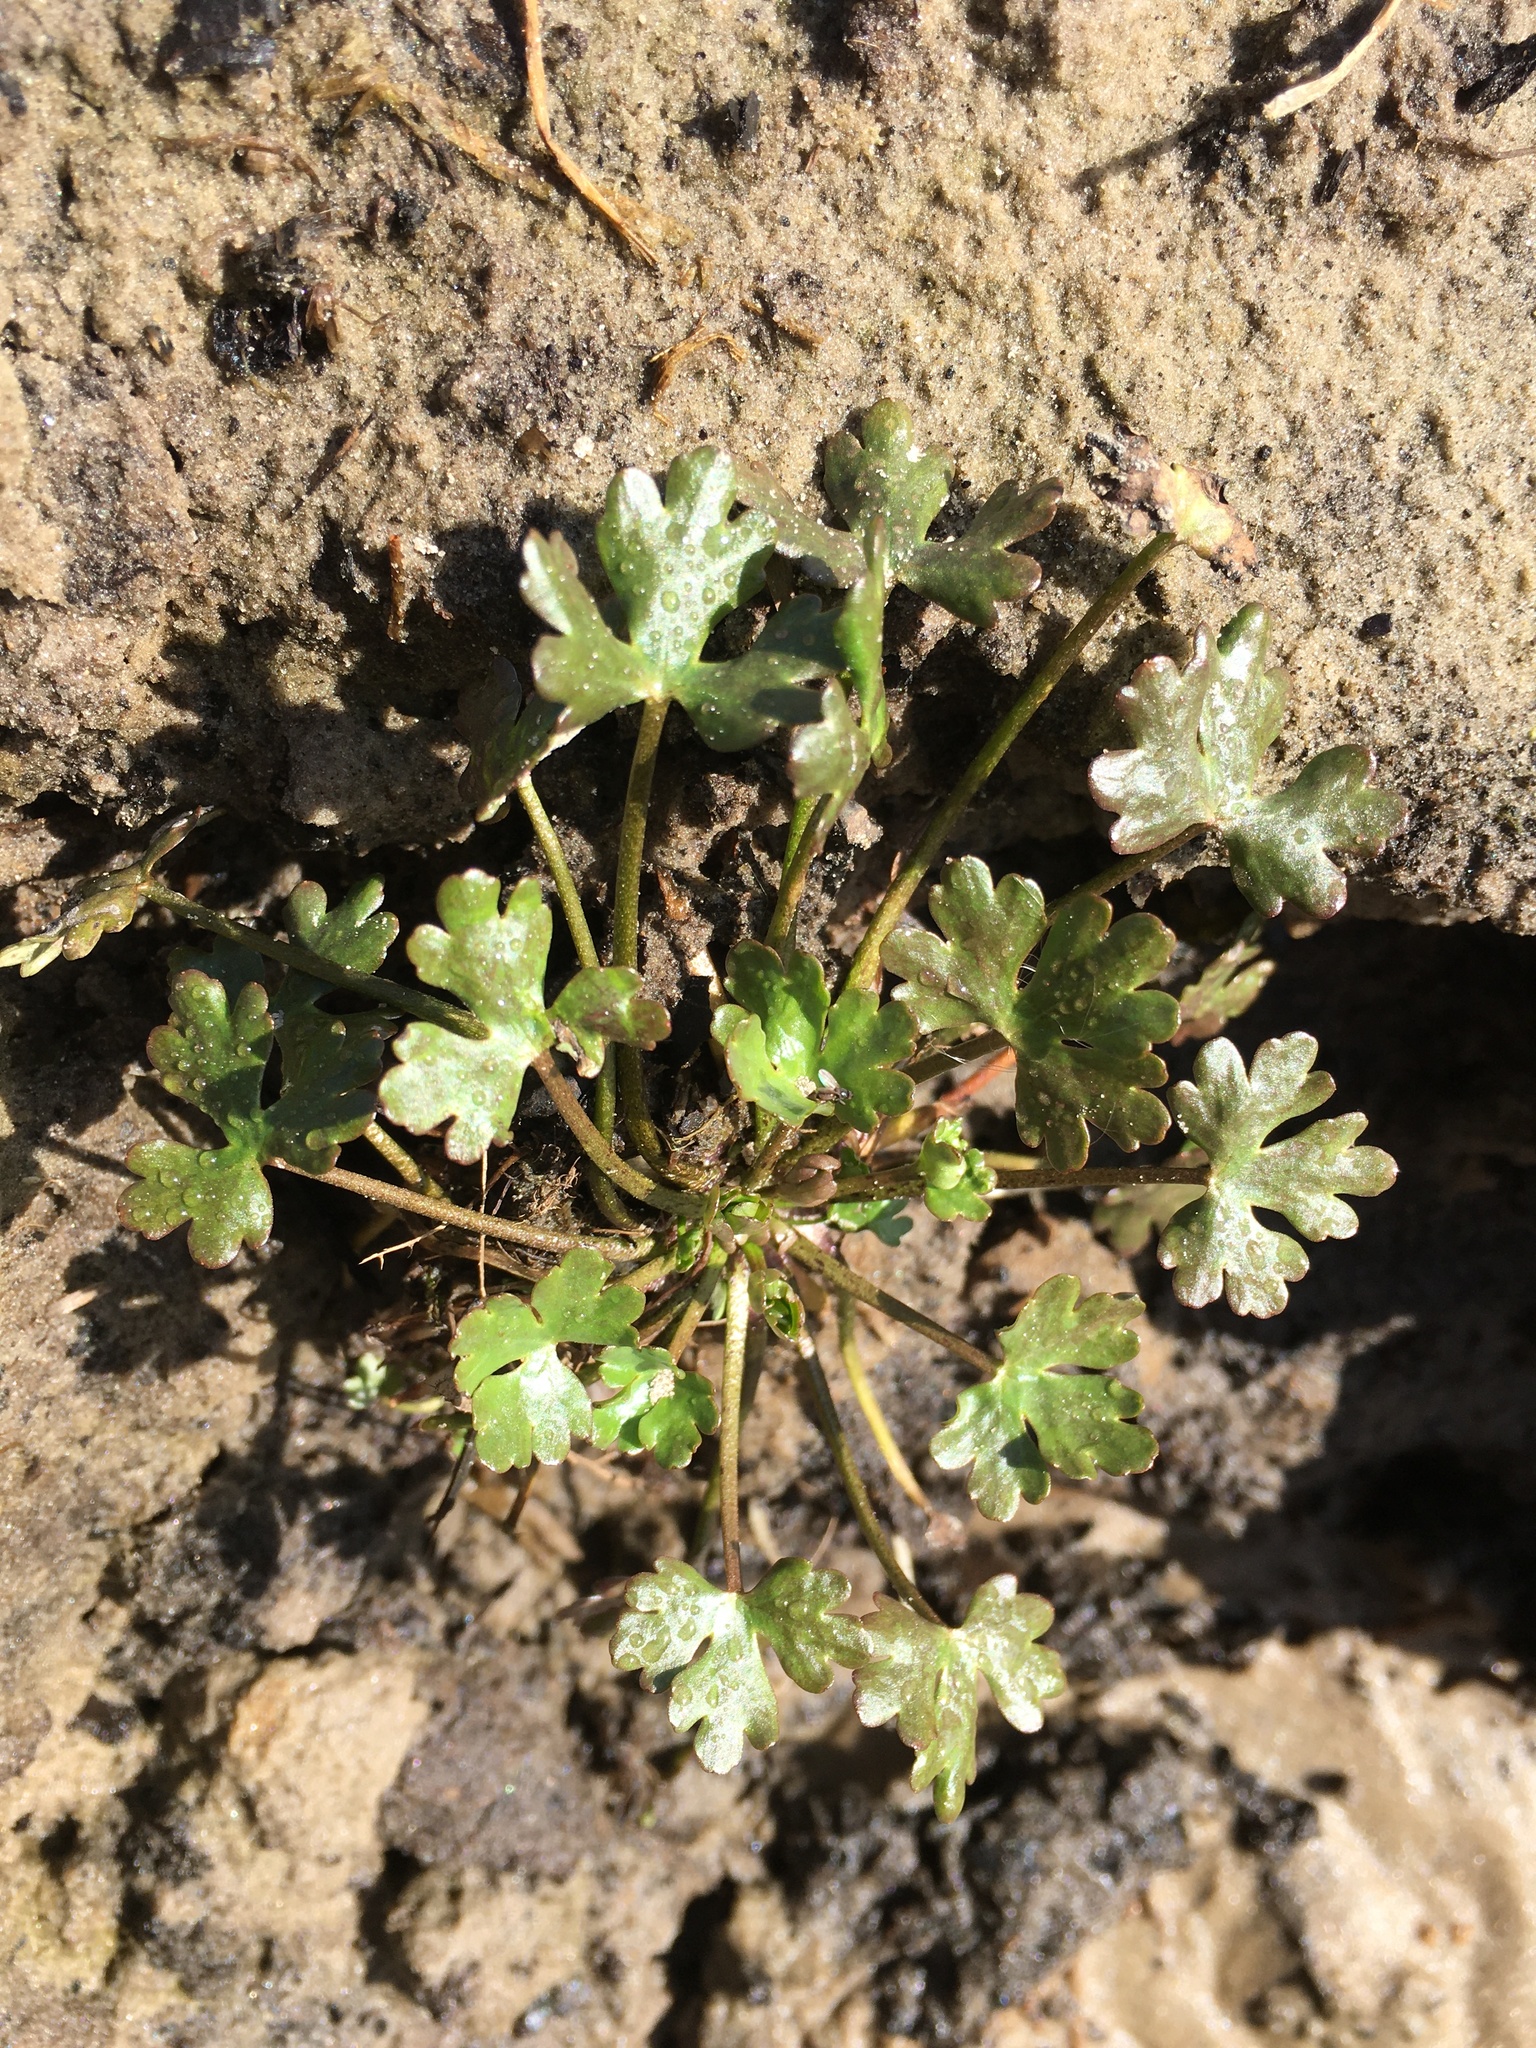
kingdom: Plantae
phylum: Tracheophyta
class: Magnoliopsida
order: Ranunculales
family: Ranunculaceae
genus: Ranunculus
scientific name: Ranunculus sceleratus
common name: Celery-leaved buttercup
